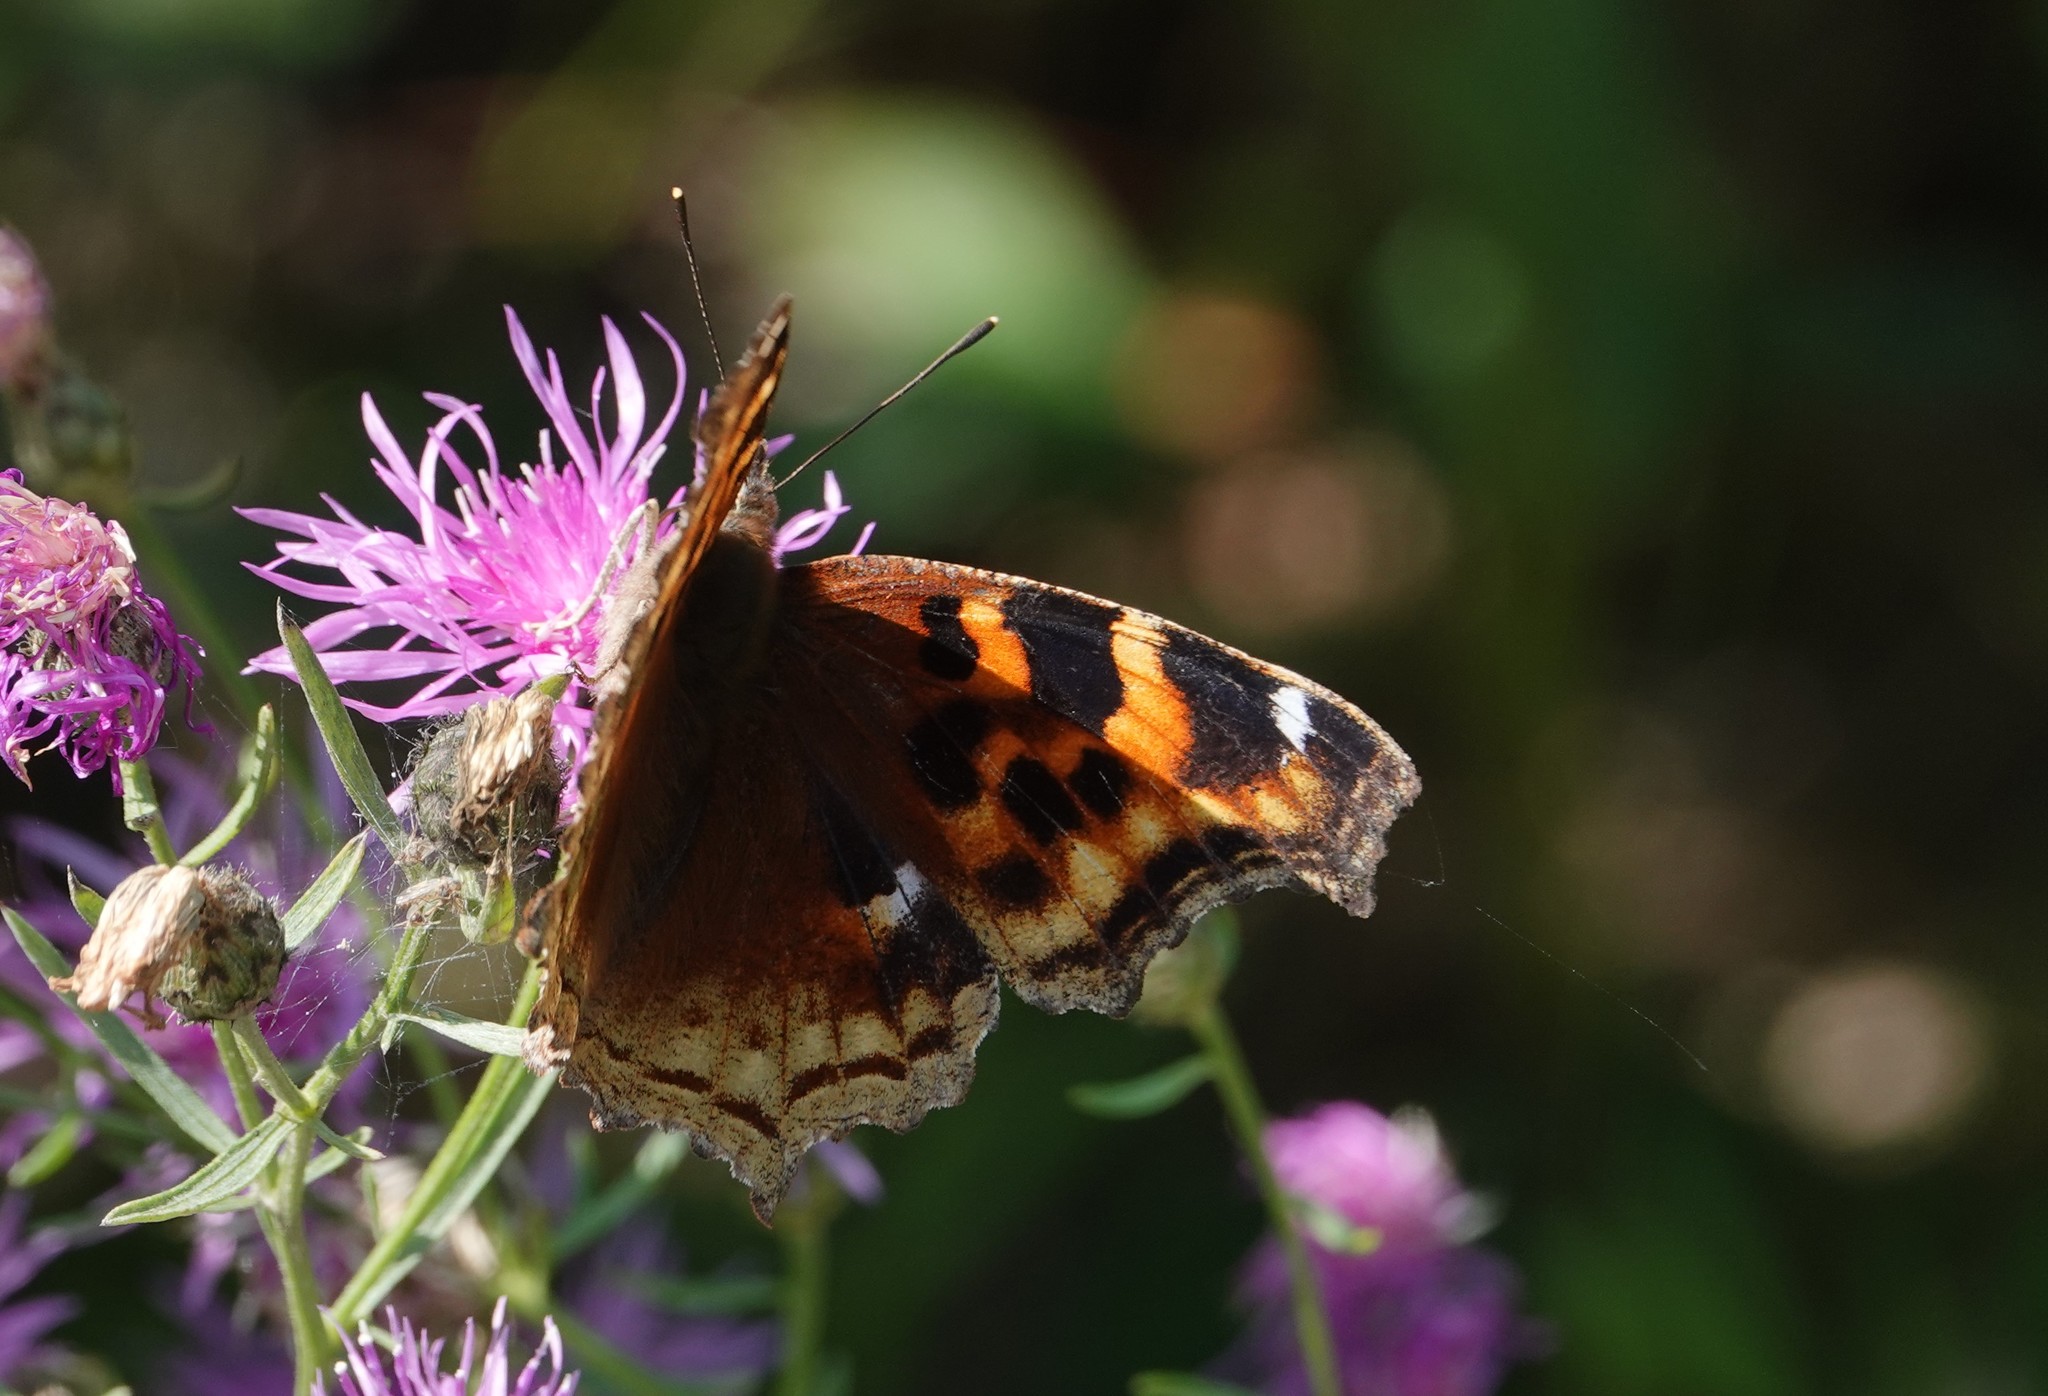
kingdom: Animalia
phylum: Arthropoda
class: Insecta
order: Lepidoptera
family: Nymphalidae
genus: Polygonia
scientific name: Polygonia vaualbum
